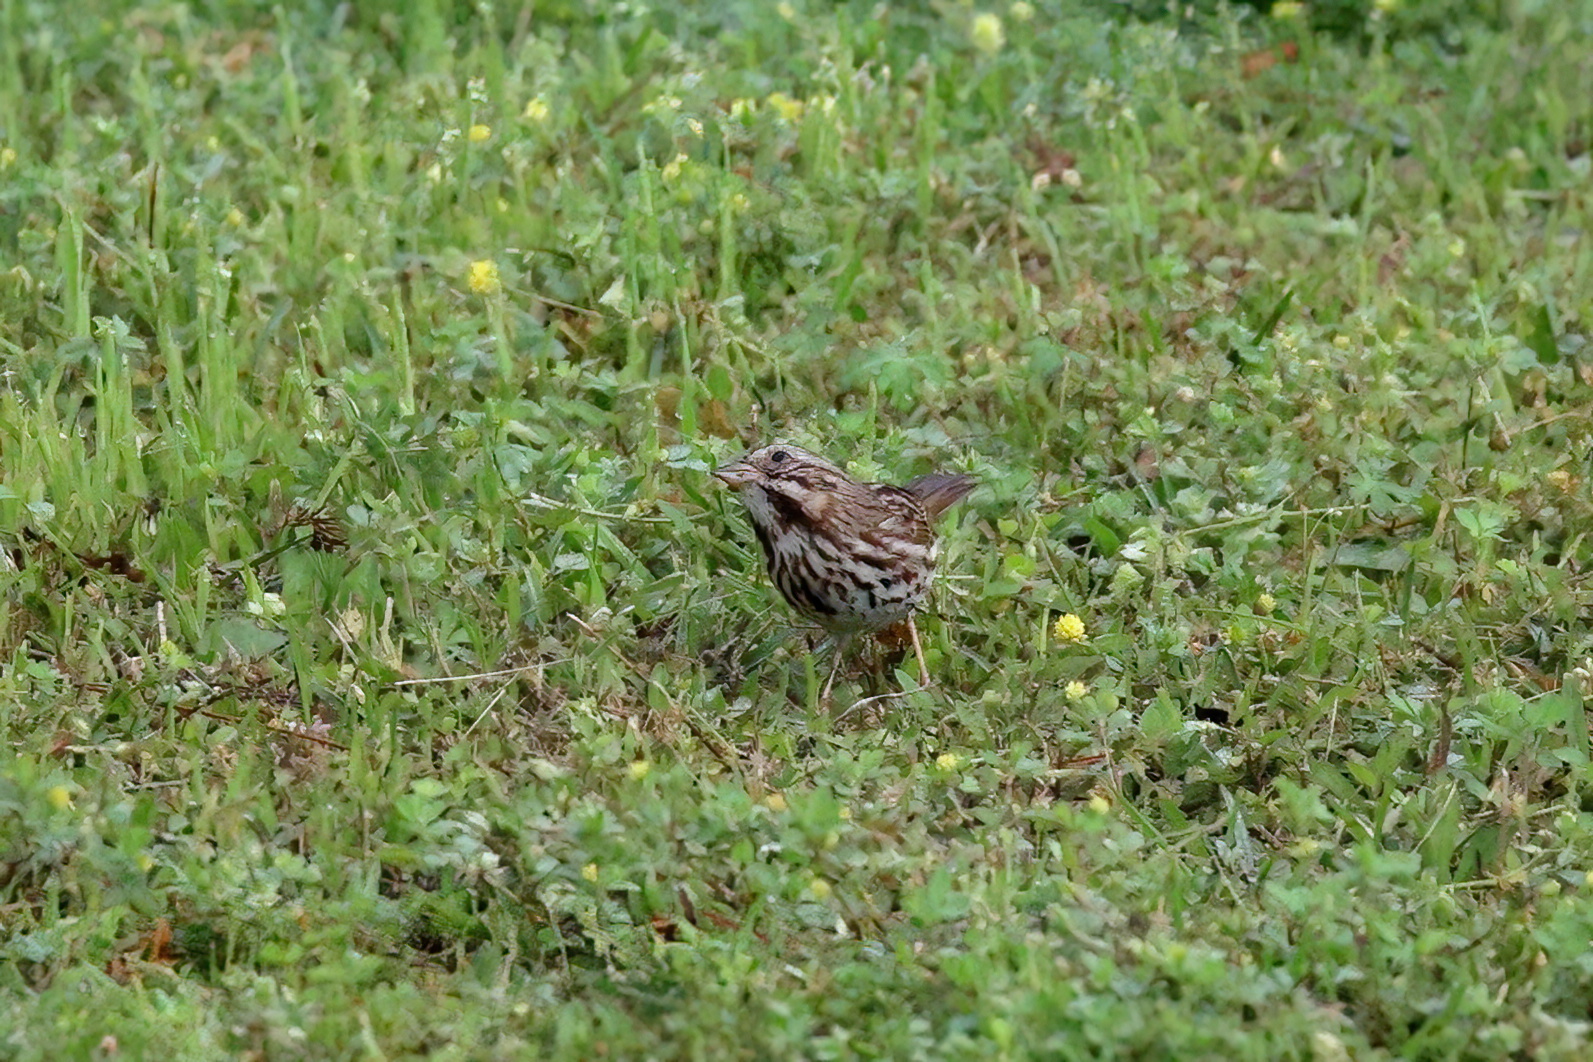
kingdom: Animalia
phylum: Chordata
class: Aves
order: Passeriformes
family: Passerellidae
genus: Melospiza
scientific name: Melospiza melodia
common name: Song sparrow
